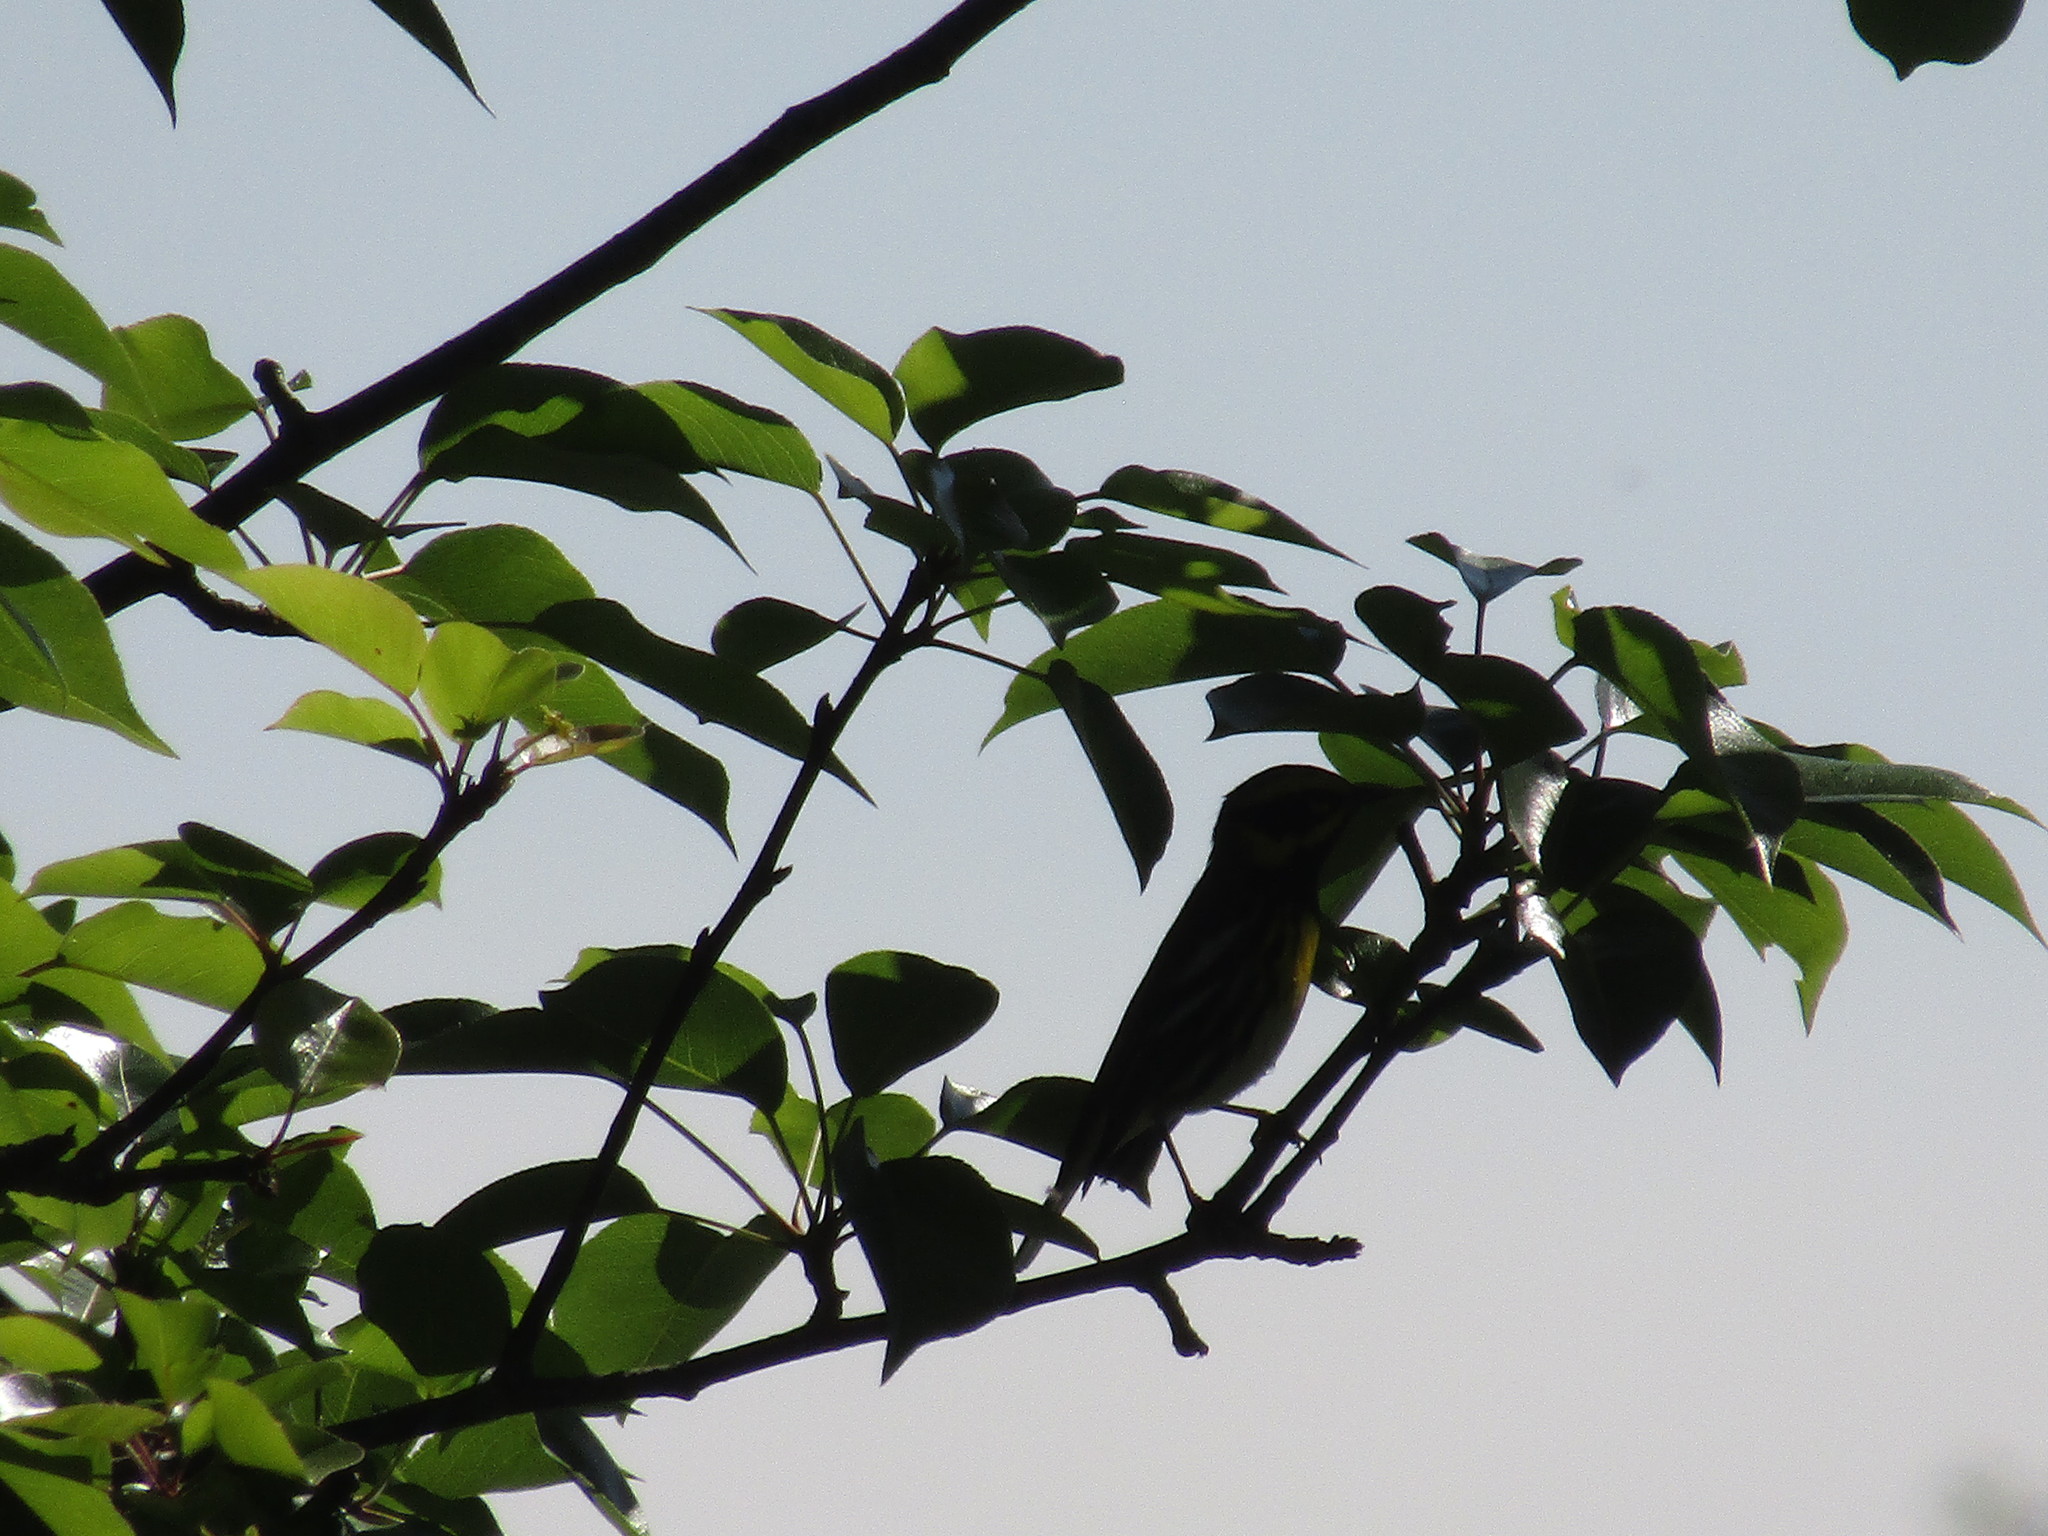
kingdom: Animalia
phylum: Chordata
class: Aves
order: Passeriformes
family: Parulidae
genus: Setophaga
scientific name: Setophaga townsendi
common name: Townsend's warbler
